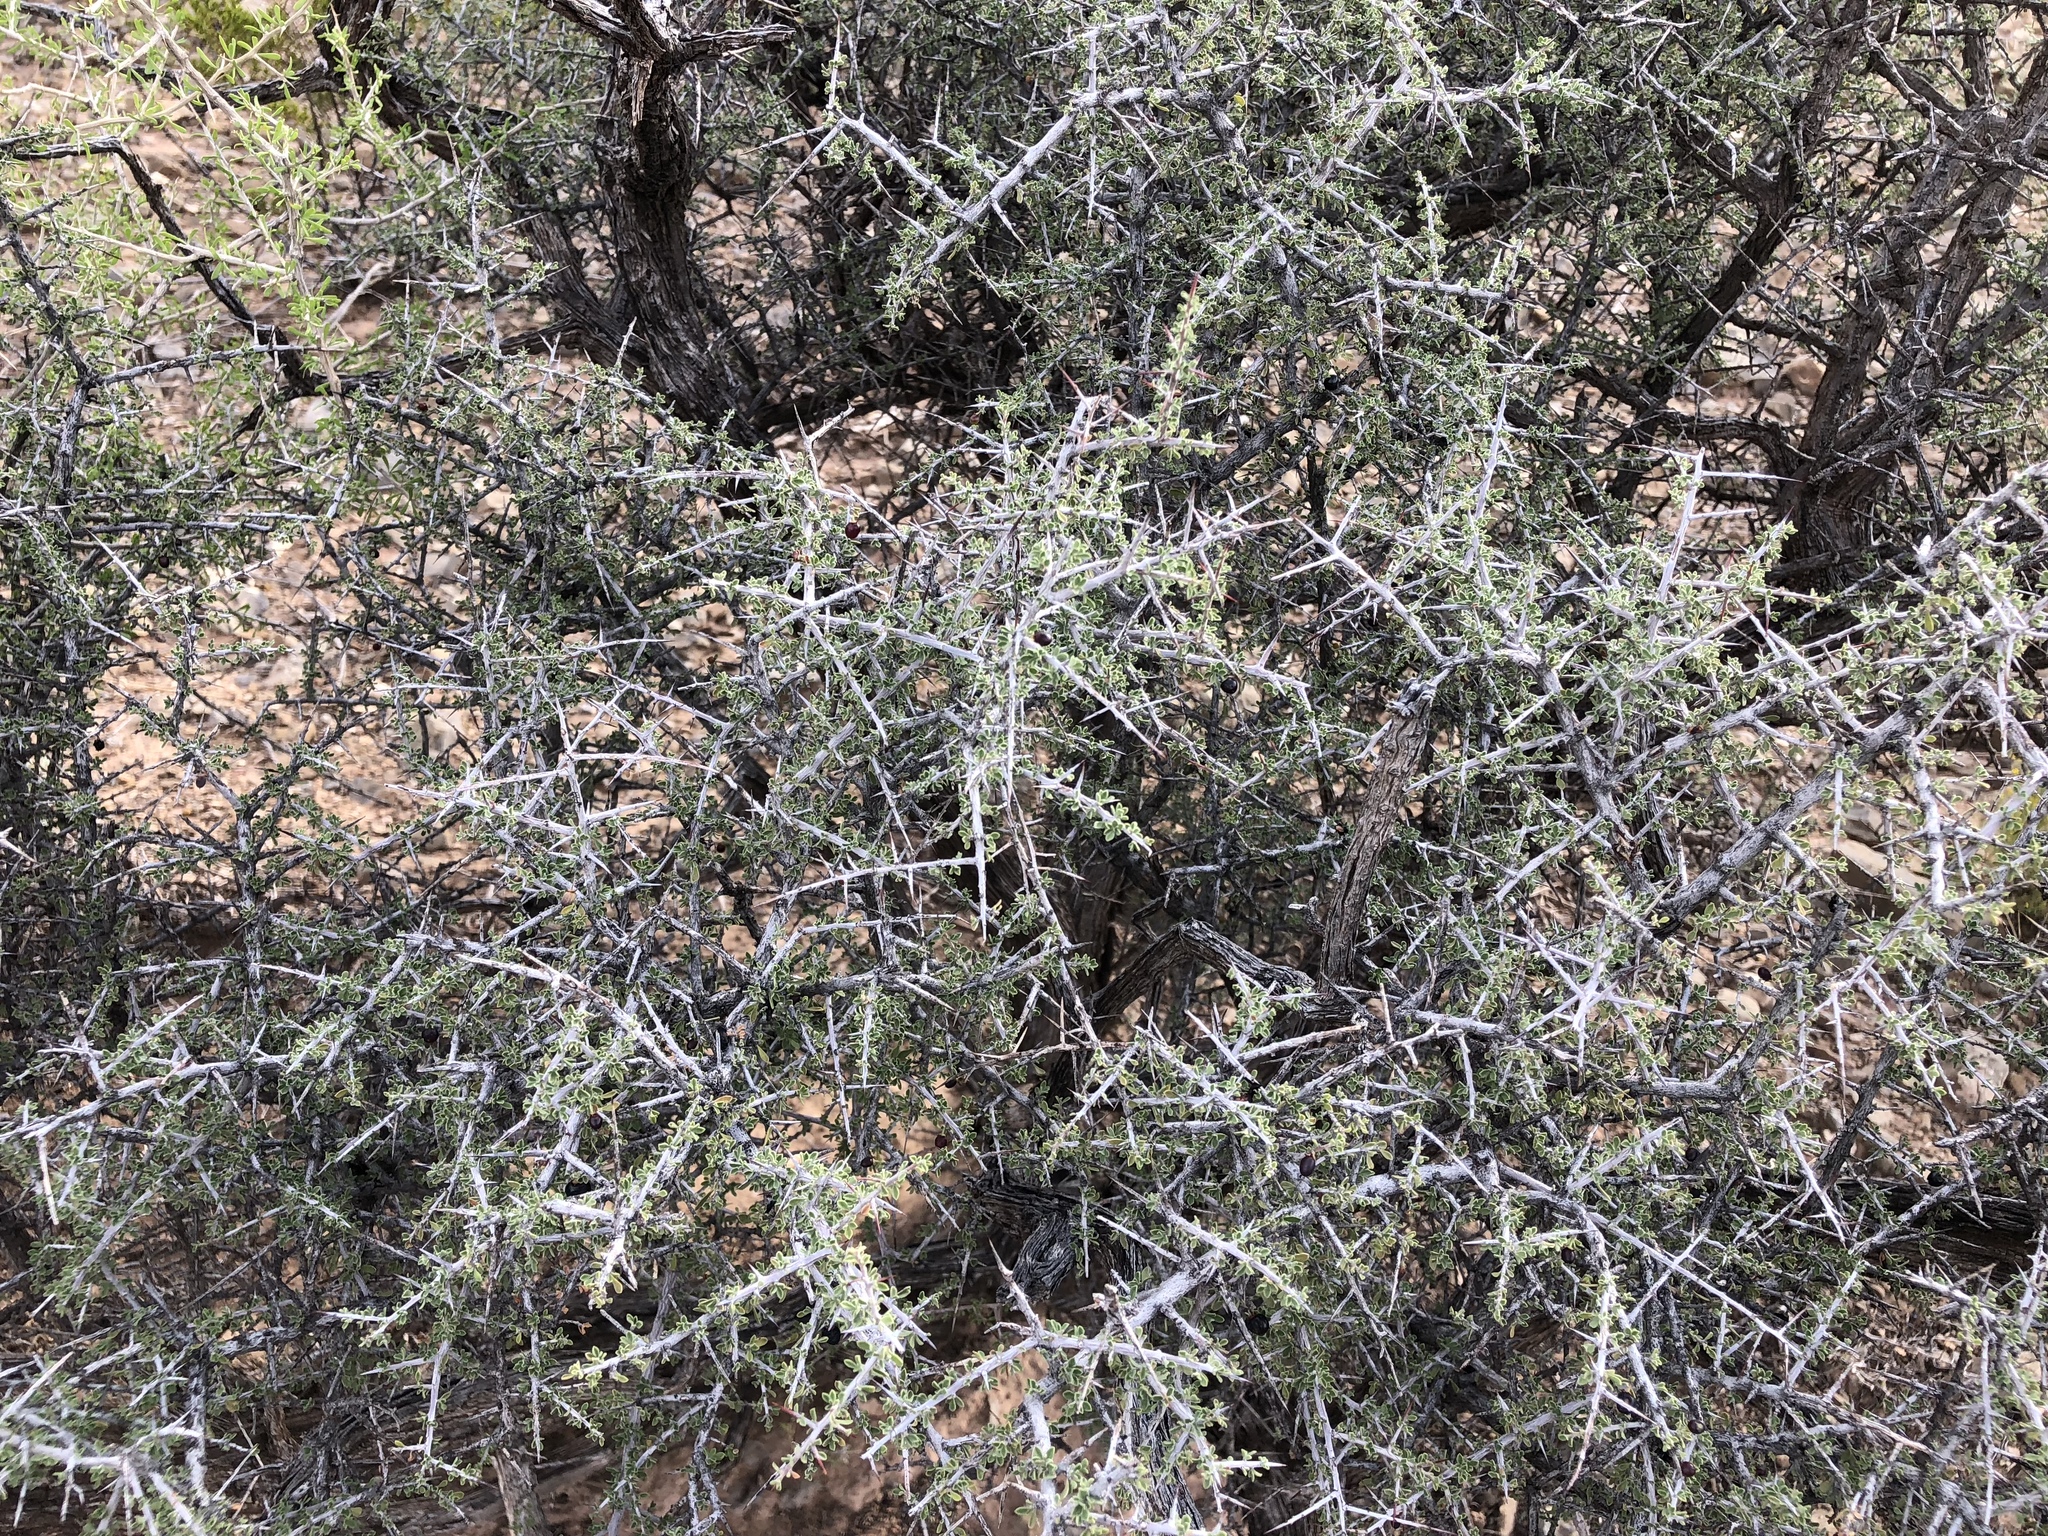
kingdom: Plantae
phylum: Tracheophyta
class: Magnoliopsida
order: Rosales
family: Rhamnaceae
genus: Condalia
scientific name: Condalia warnockii
